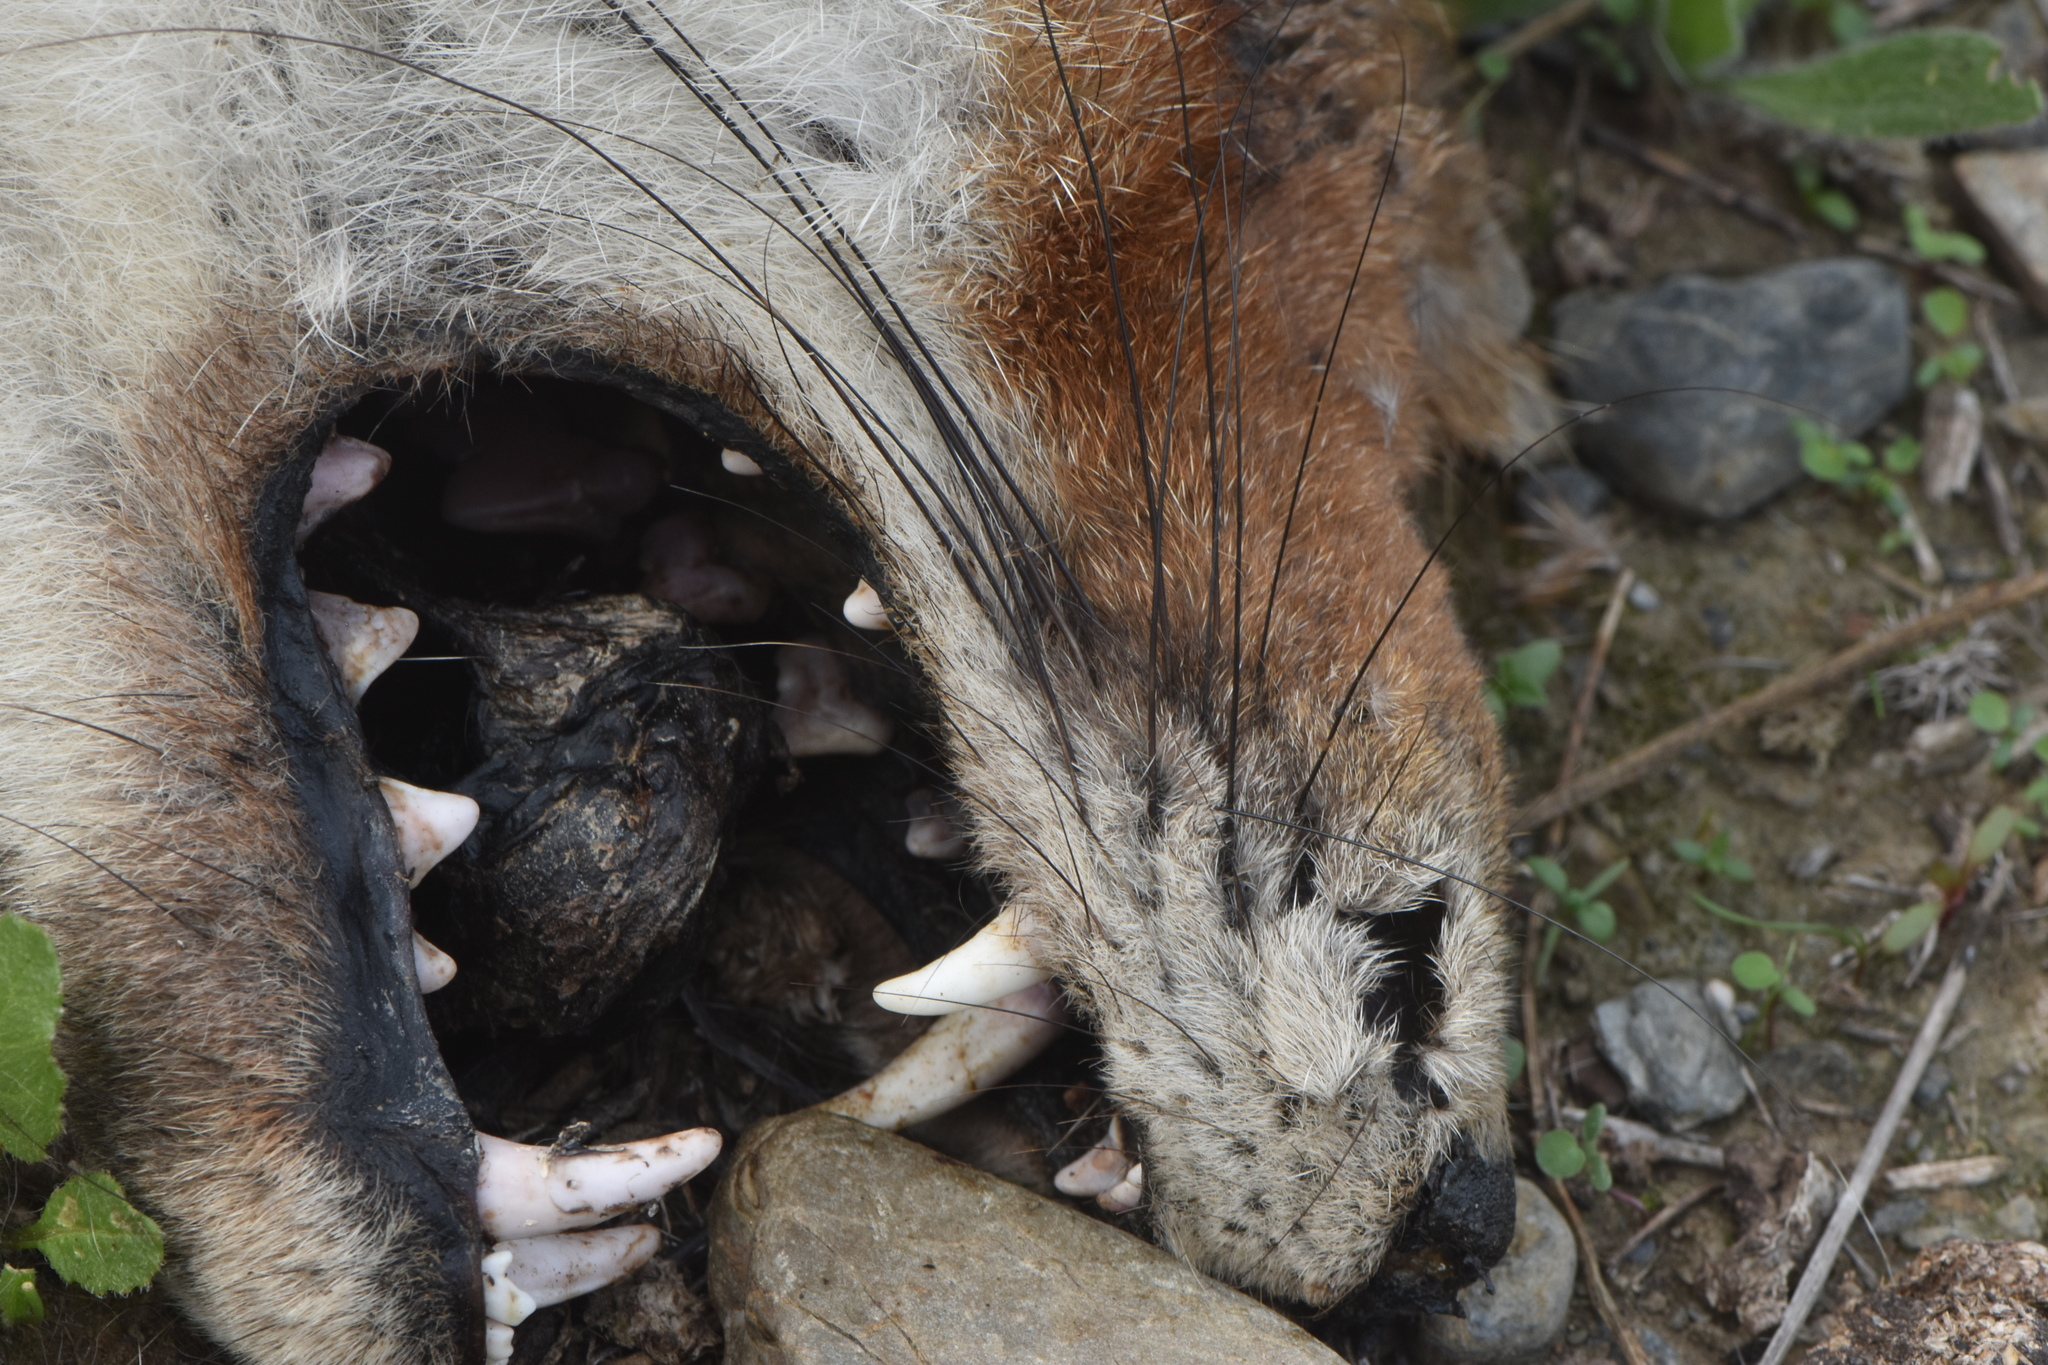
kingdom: Animalia
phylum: Chordata
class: Mammalia
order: Carnivora
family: Canidae
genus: Vulpes
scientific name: Vulpes vulpes
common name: Red fox
